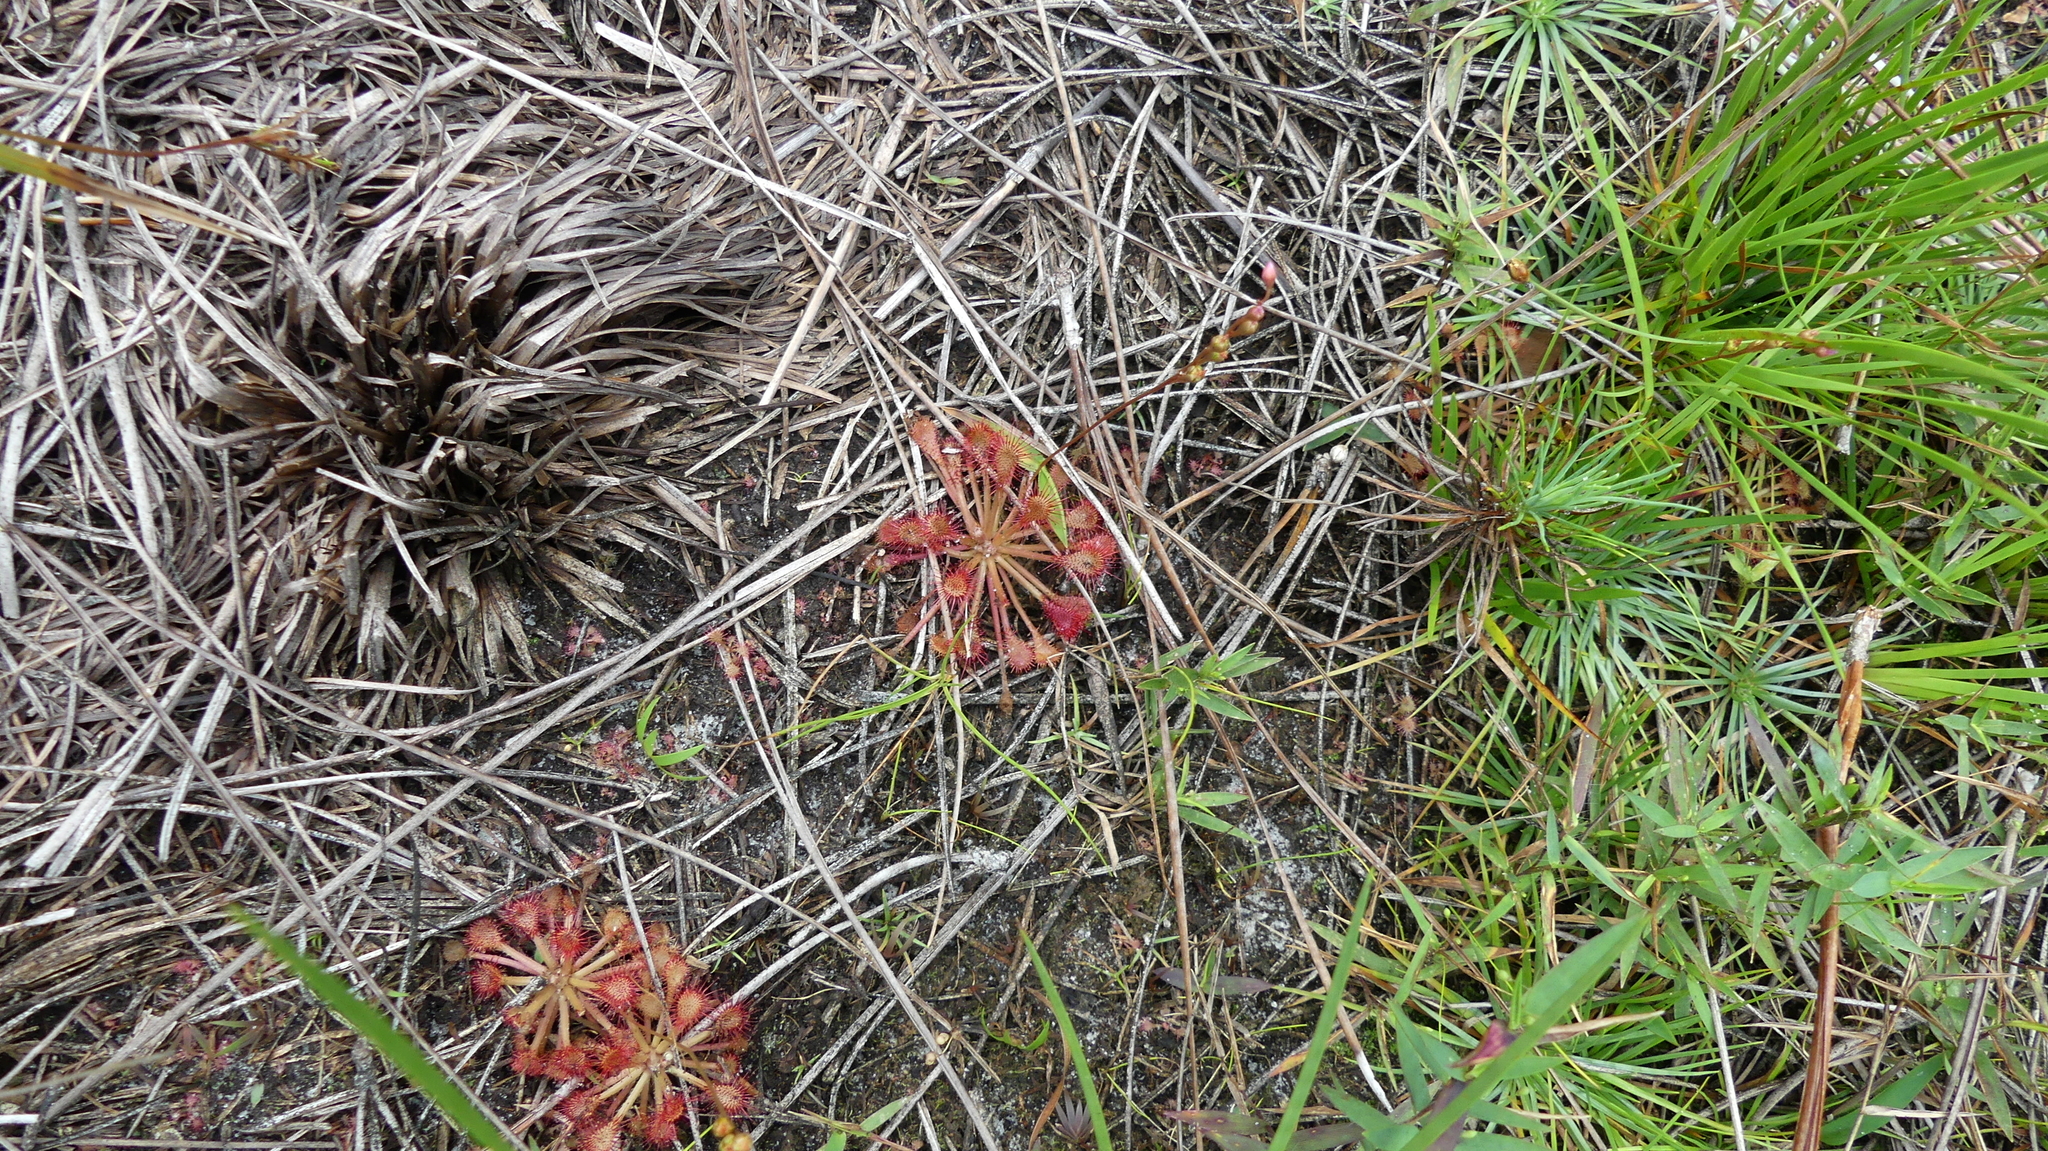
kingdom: Plantae
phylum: Tracheophyta
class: Magnoliopsida
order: Caryophyllales
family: Droseraceae
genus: Drosera
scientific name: Drosera capillaris
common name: Pink sundew
